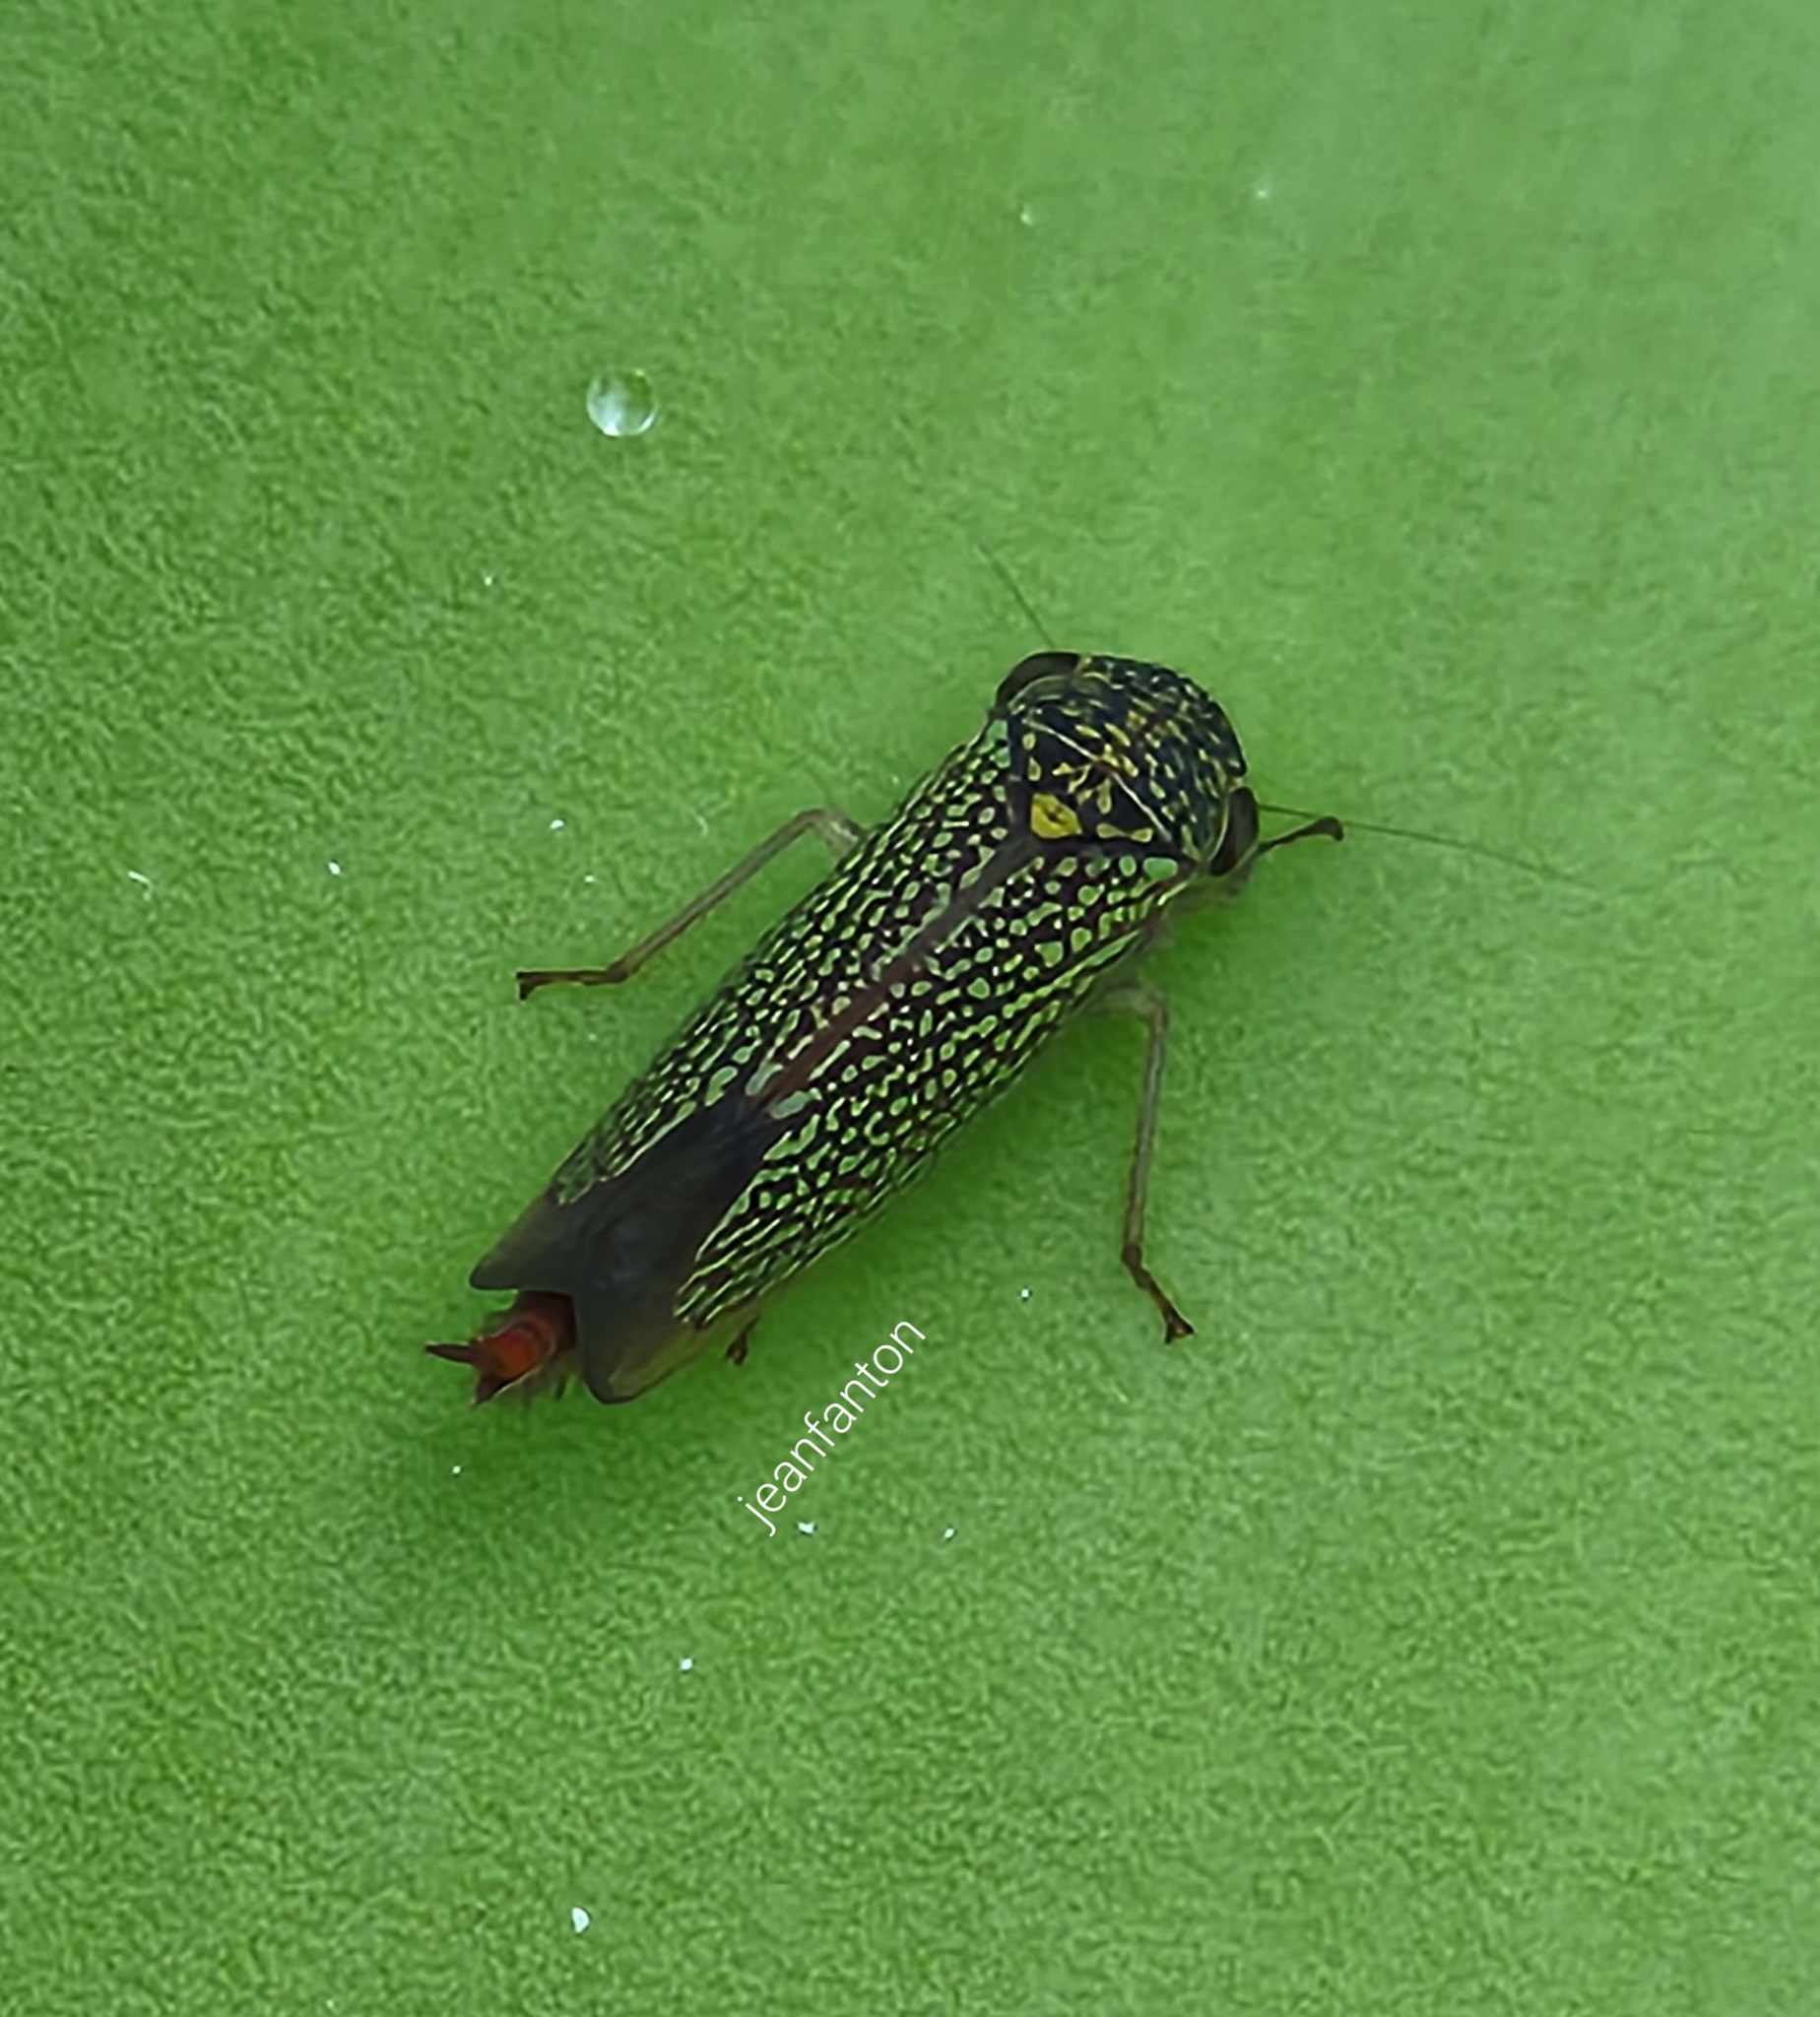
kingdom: Animalia
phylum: Arthropoda
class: Insecta
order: Hemiptera
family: Cicadellidae
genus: Macugonalia
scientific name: Macugonalia cavifrons
